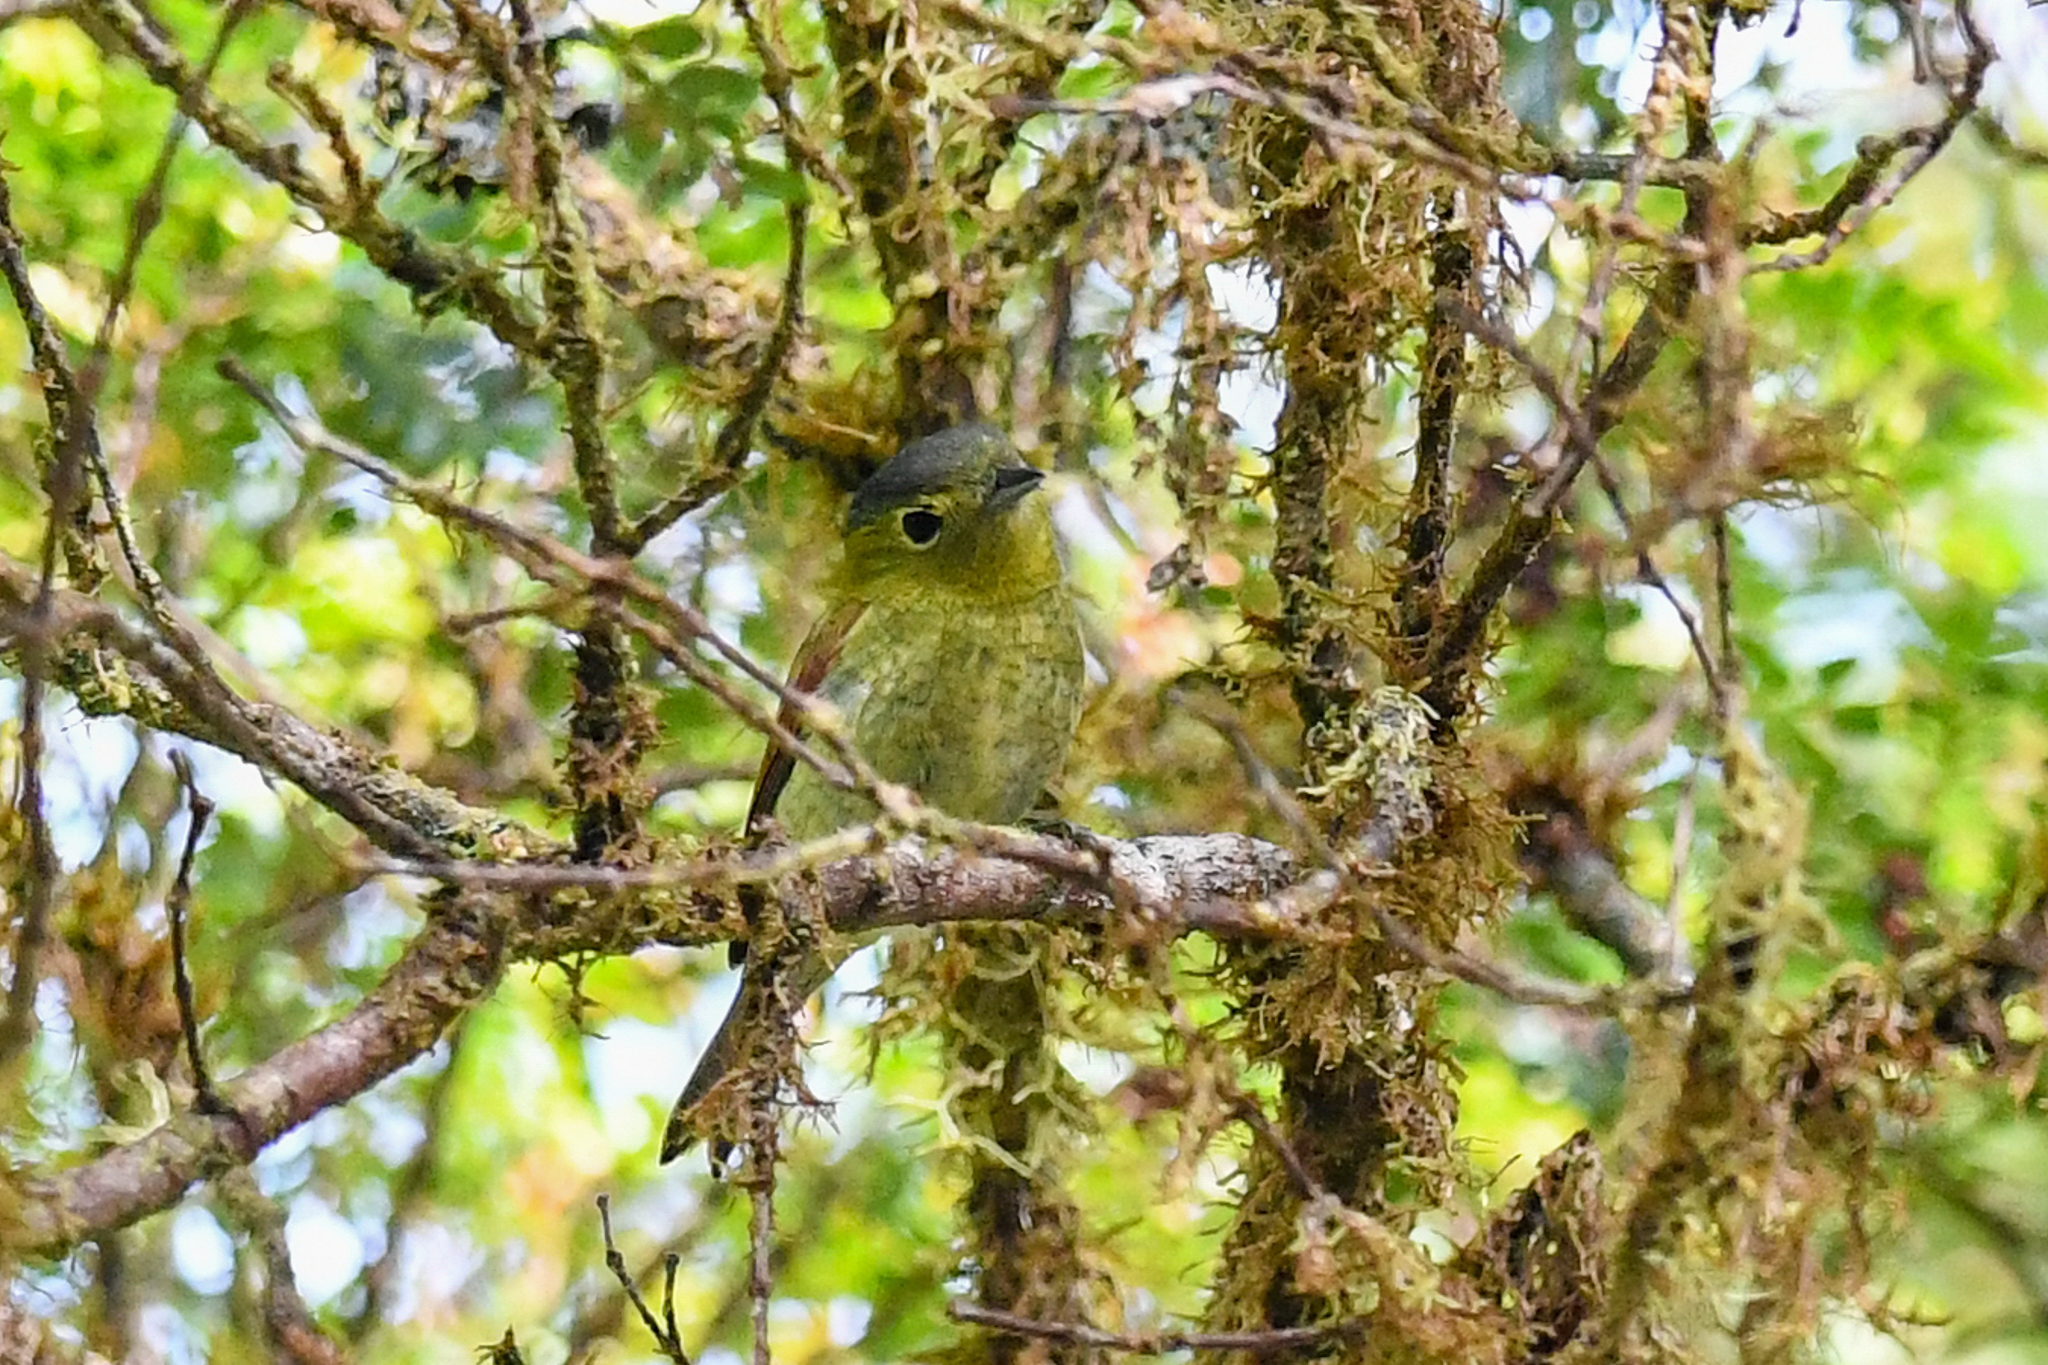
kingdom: Animalia
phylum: Chordata
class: Aves
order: Passeriformes
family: Cotingidae
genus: Pachyramphus
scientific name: Pachyramphus versicolor
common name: Barred becard
